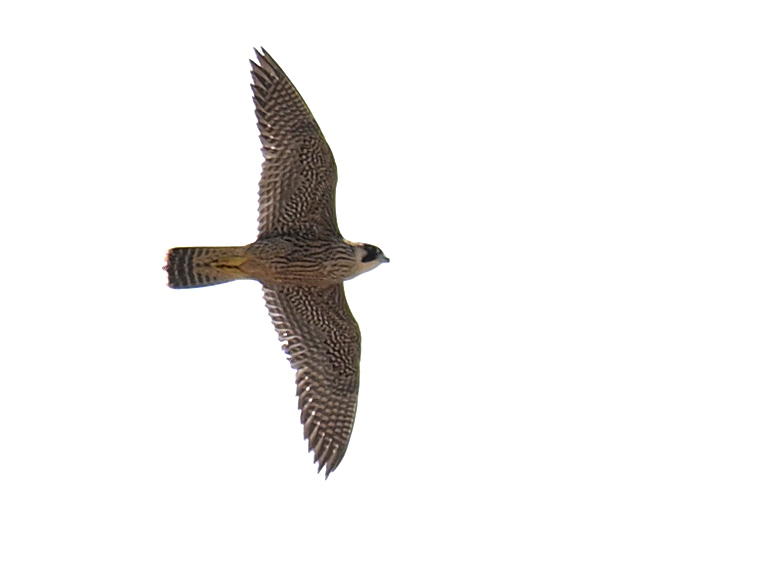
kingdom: Animalia
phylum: Chordata
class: Aves
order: Falconiformes
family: Falconidae
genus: Falco
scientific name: Falco peregrinus
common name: Peregrine falcon
